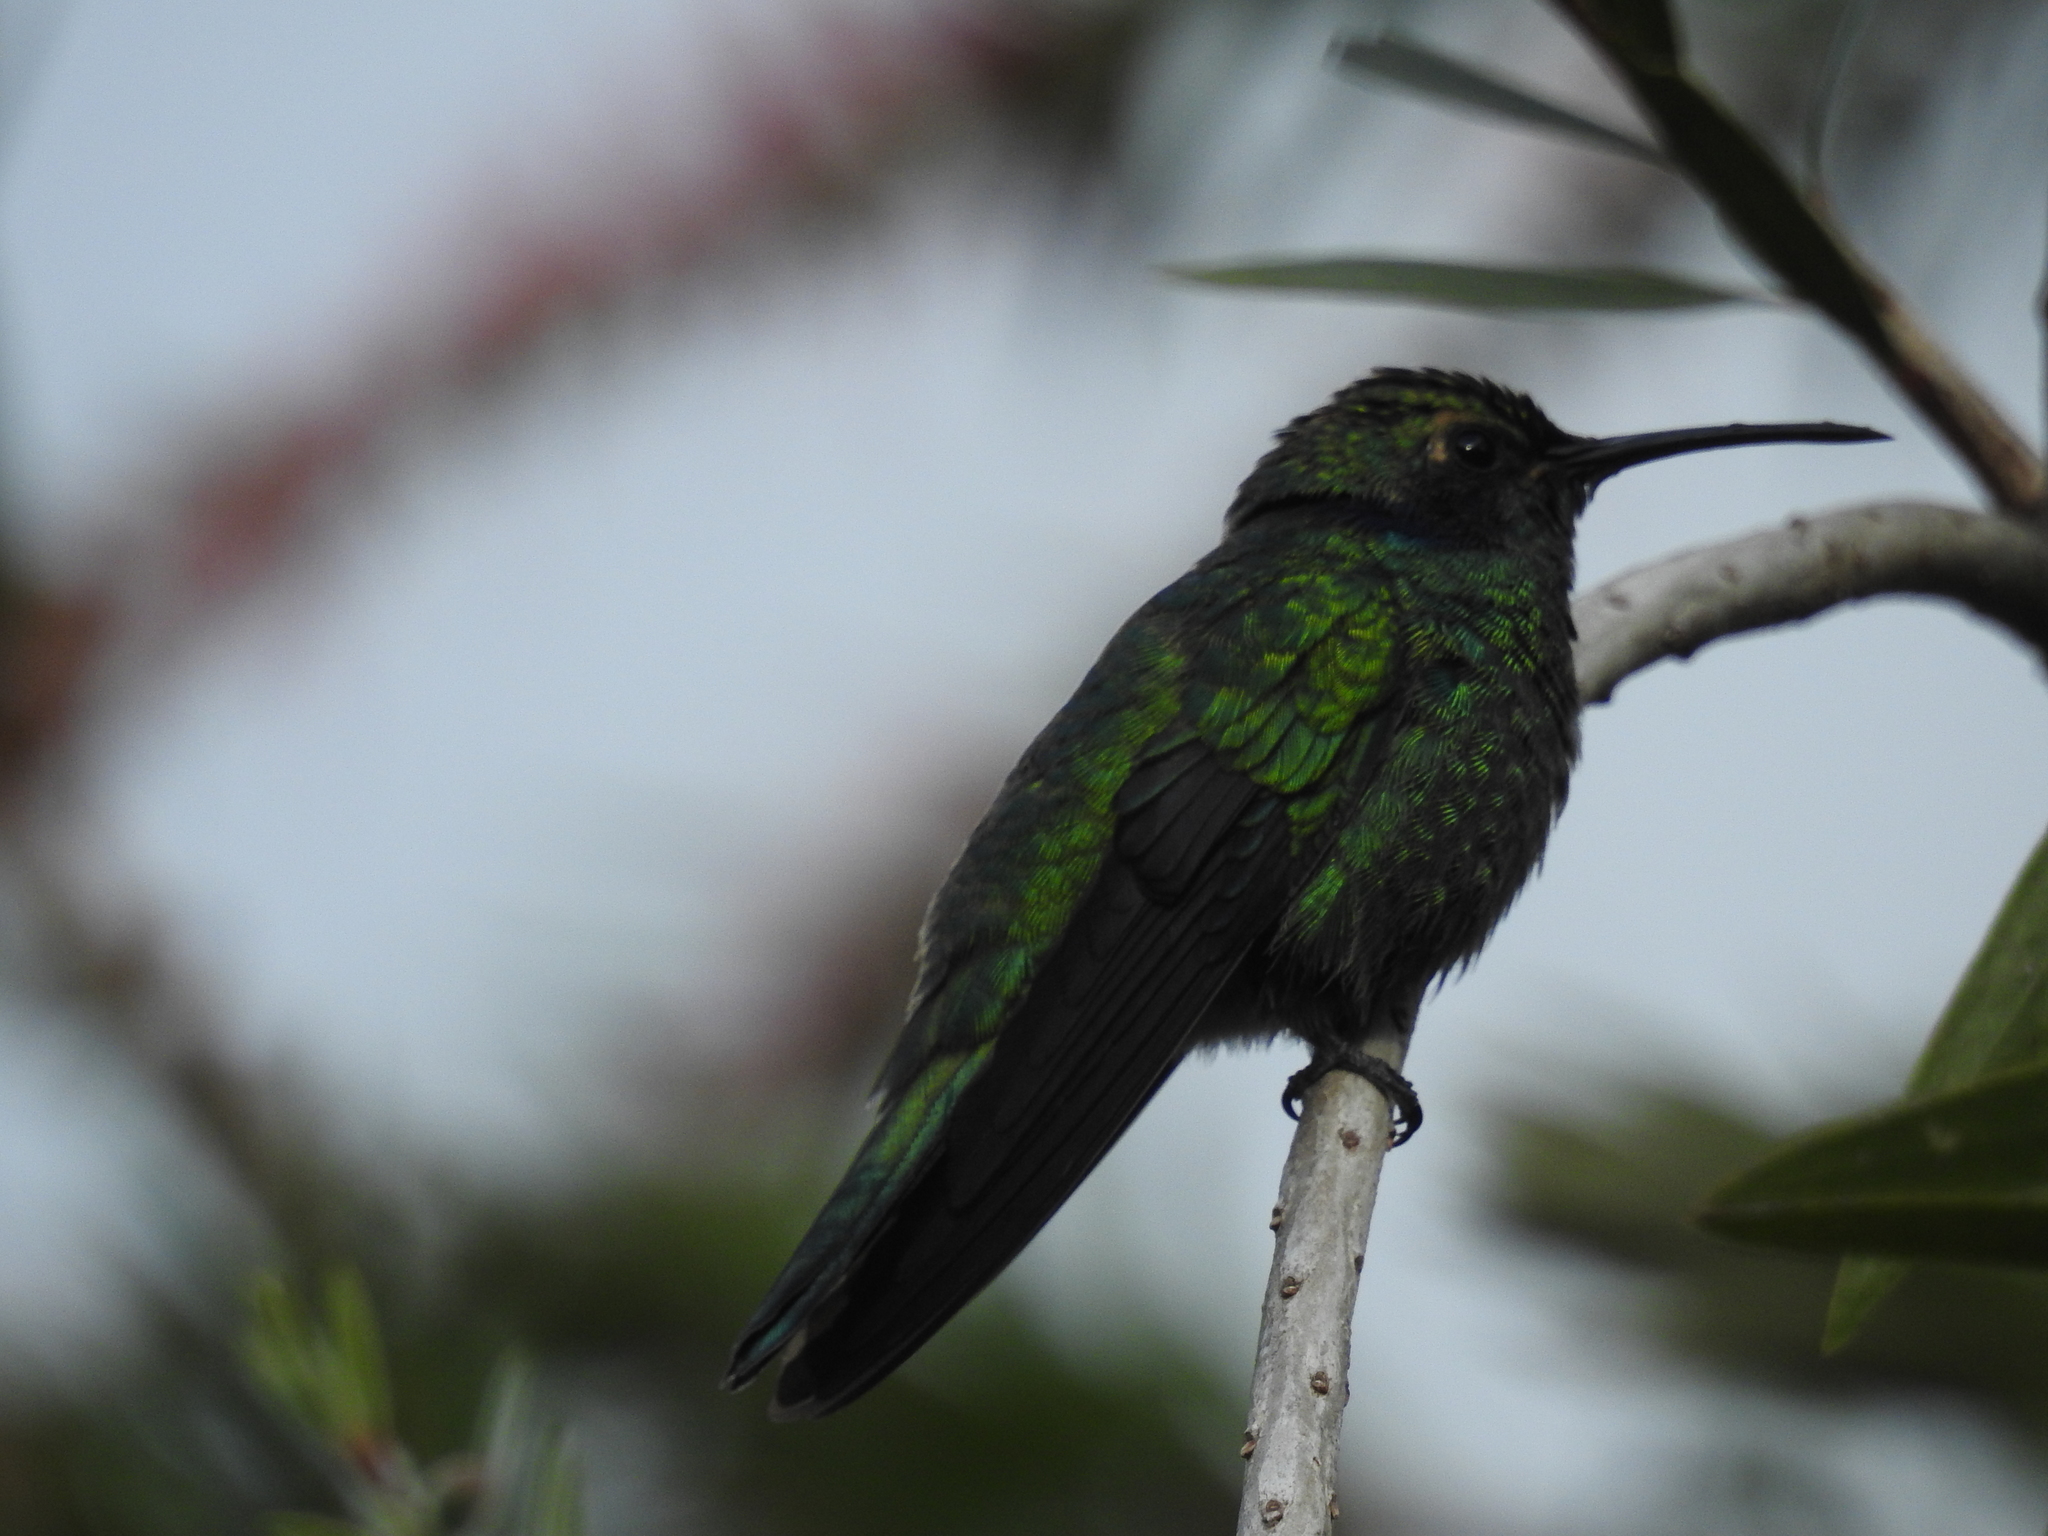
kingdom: Animalia
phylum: Chordata
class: Aves
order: Apodiformes
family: Trochilidae
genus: Colibri
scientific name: Colibri cyanotus
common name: Lesser violetear
